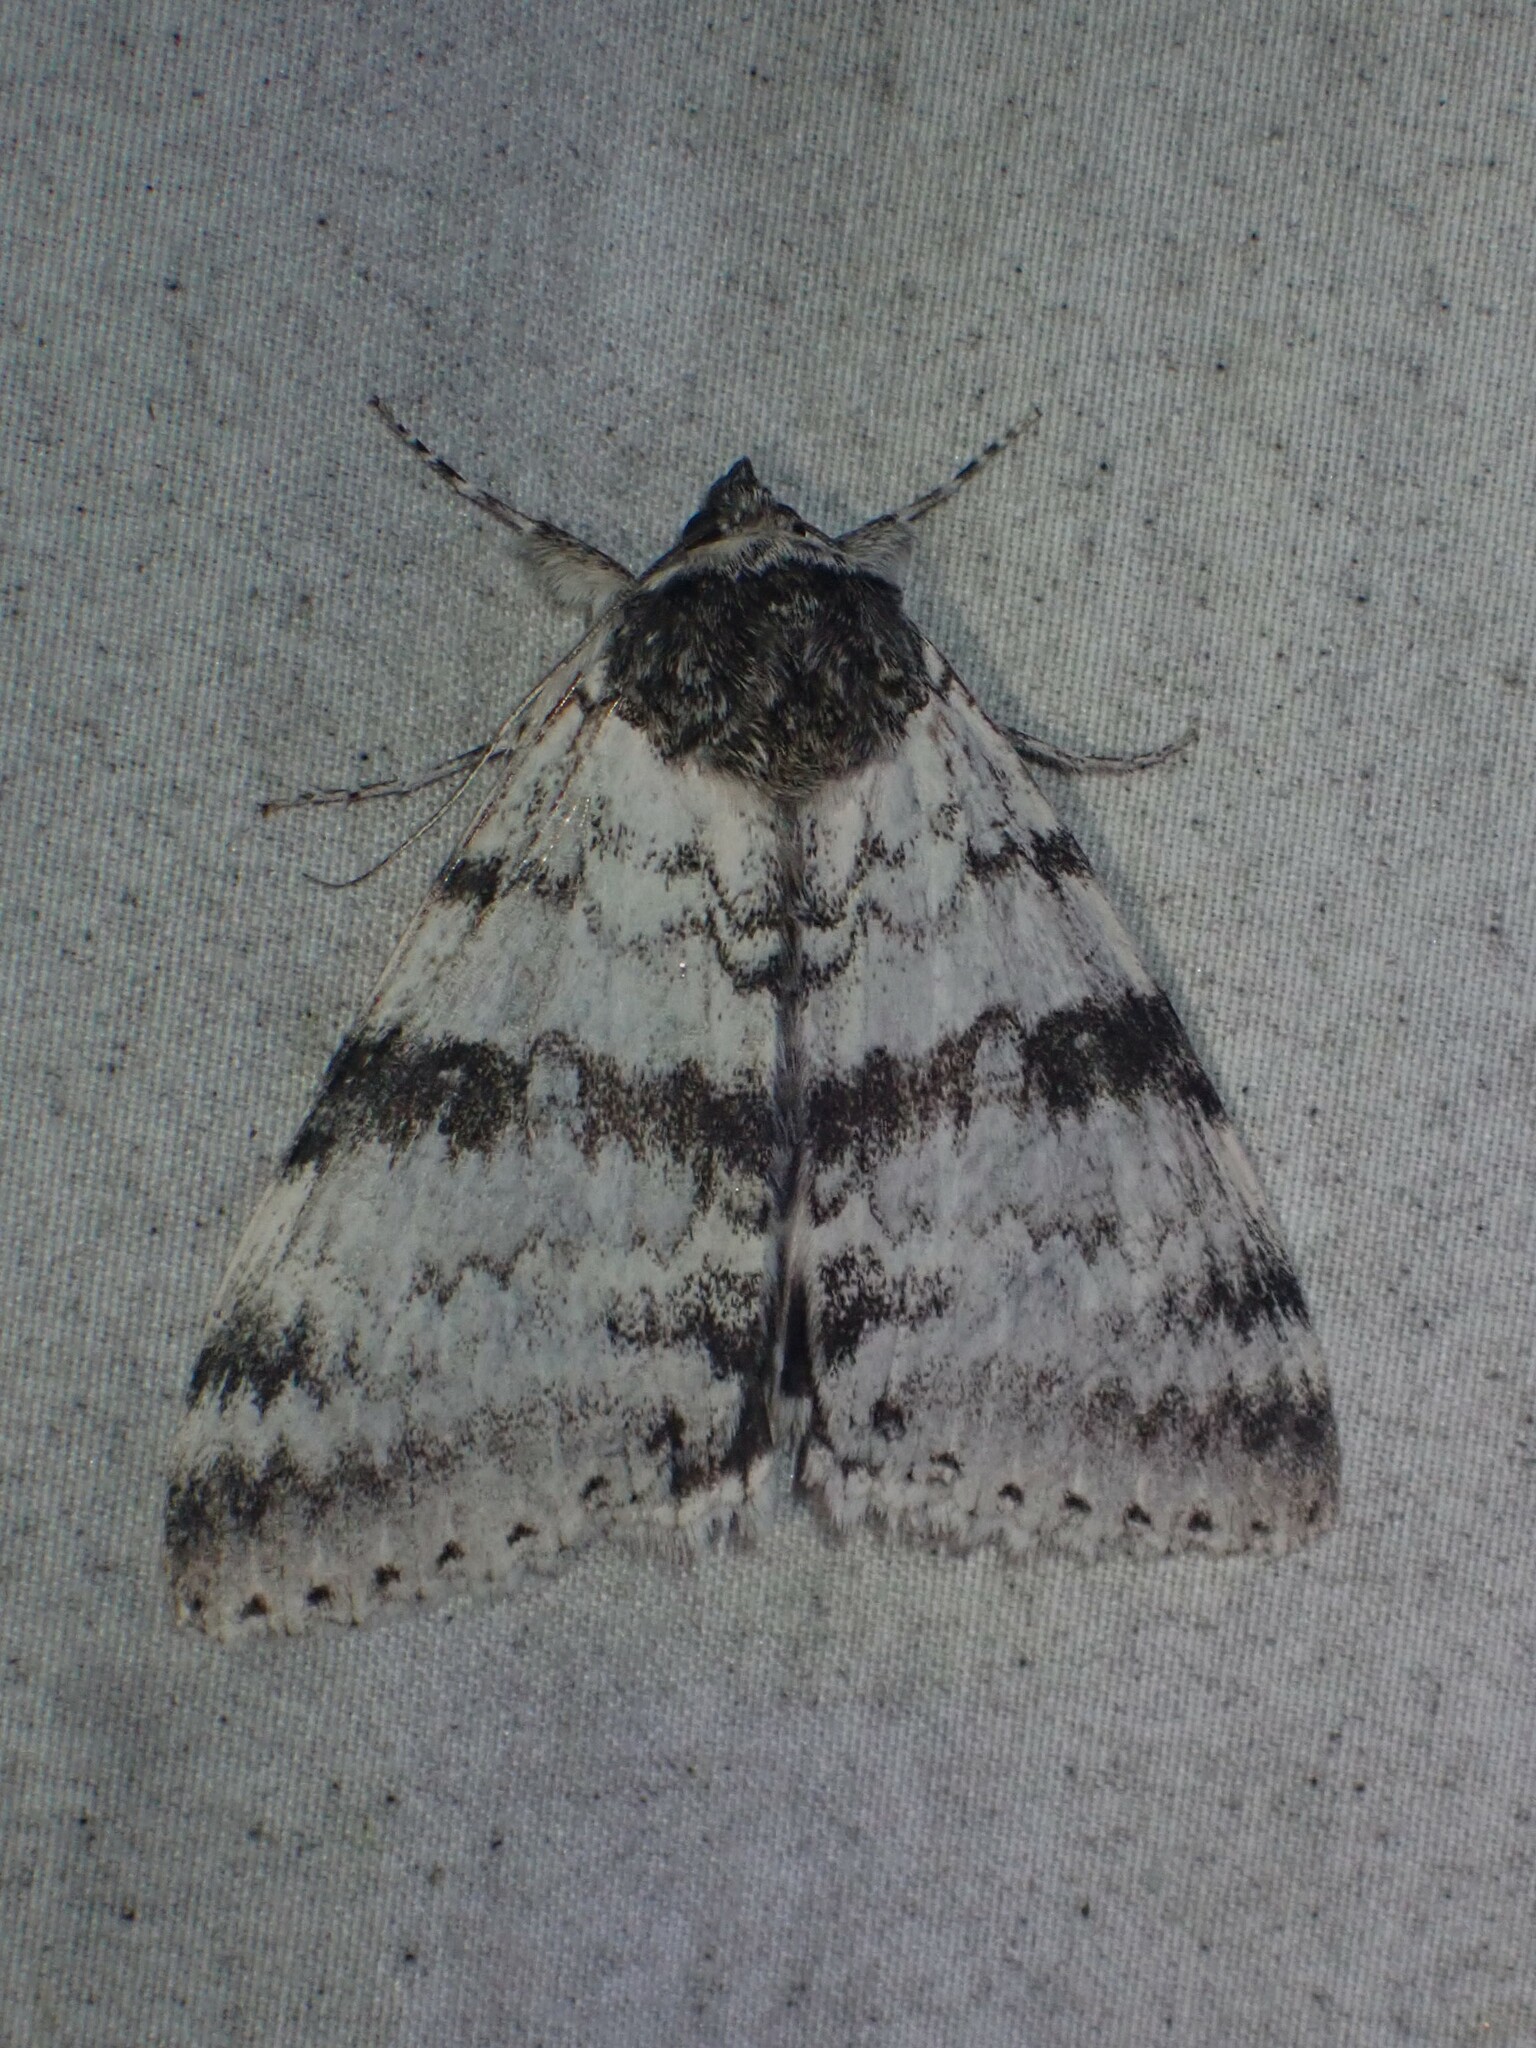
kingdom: Animalia
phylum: Arthropoda
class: Insecta
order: Lepidoptera
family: Erebidae
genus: Catocala
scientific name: Catocala relicta
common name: White underwing
